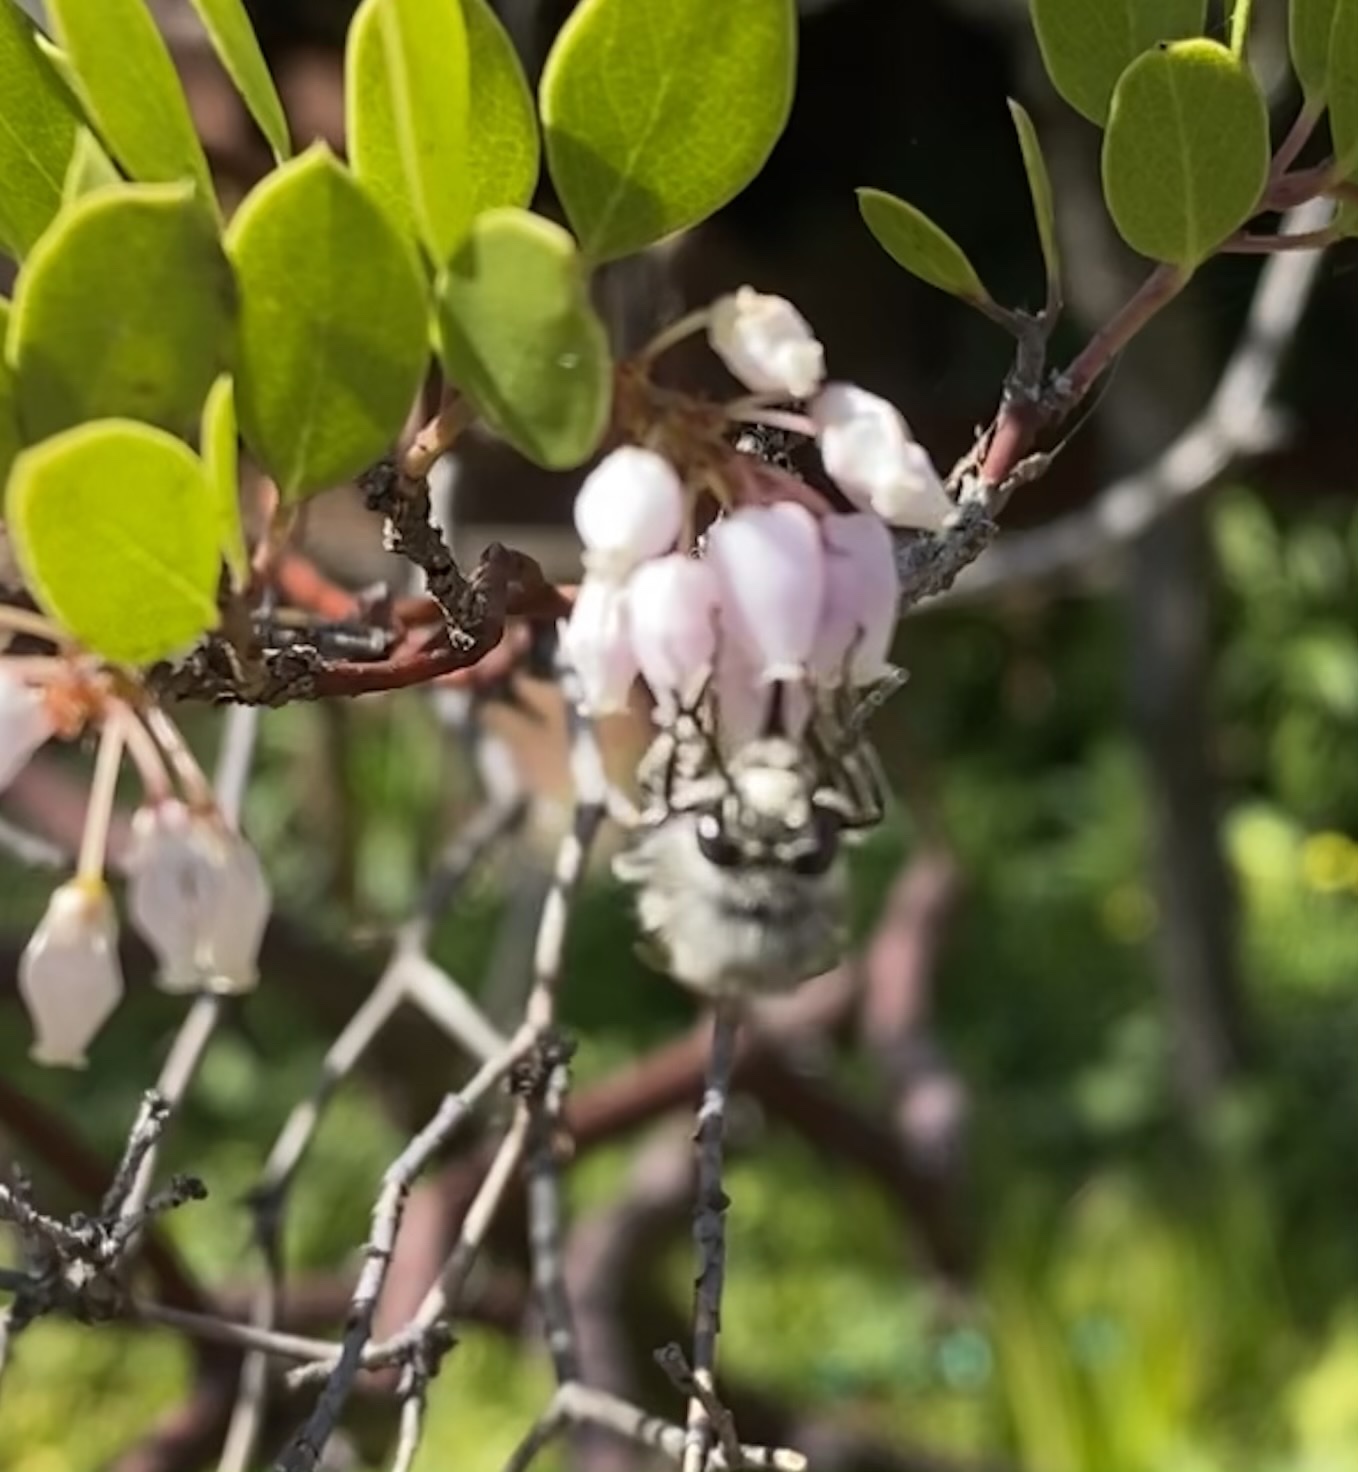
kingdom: Animalia
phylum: Arthropoda
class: Insecta
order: Hymenoptera
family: Apidae
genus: Habropoda
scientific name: Habropoda depressa
